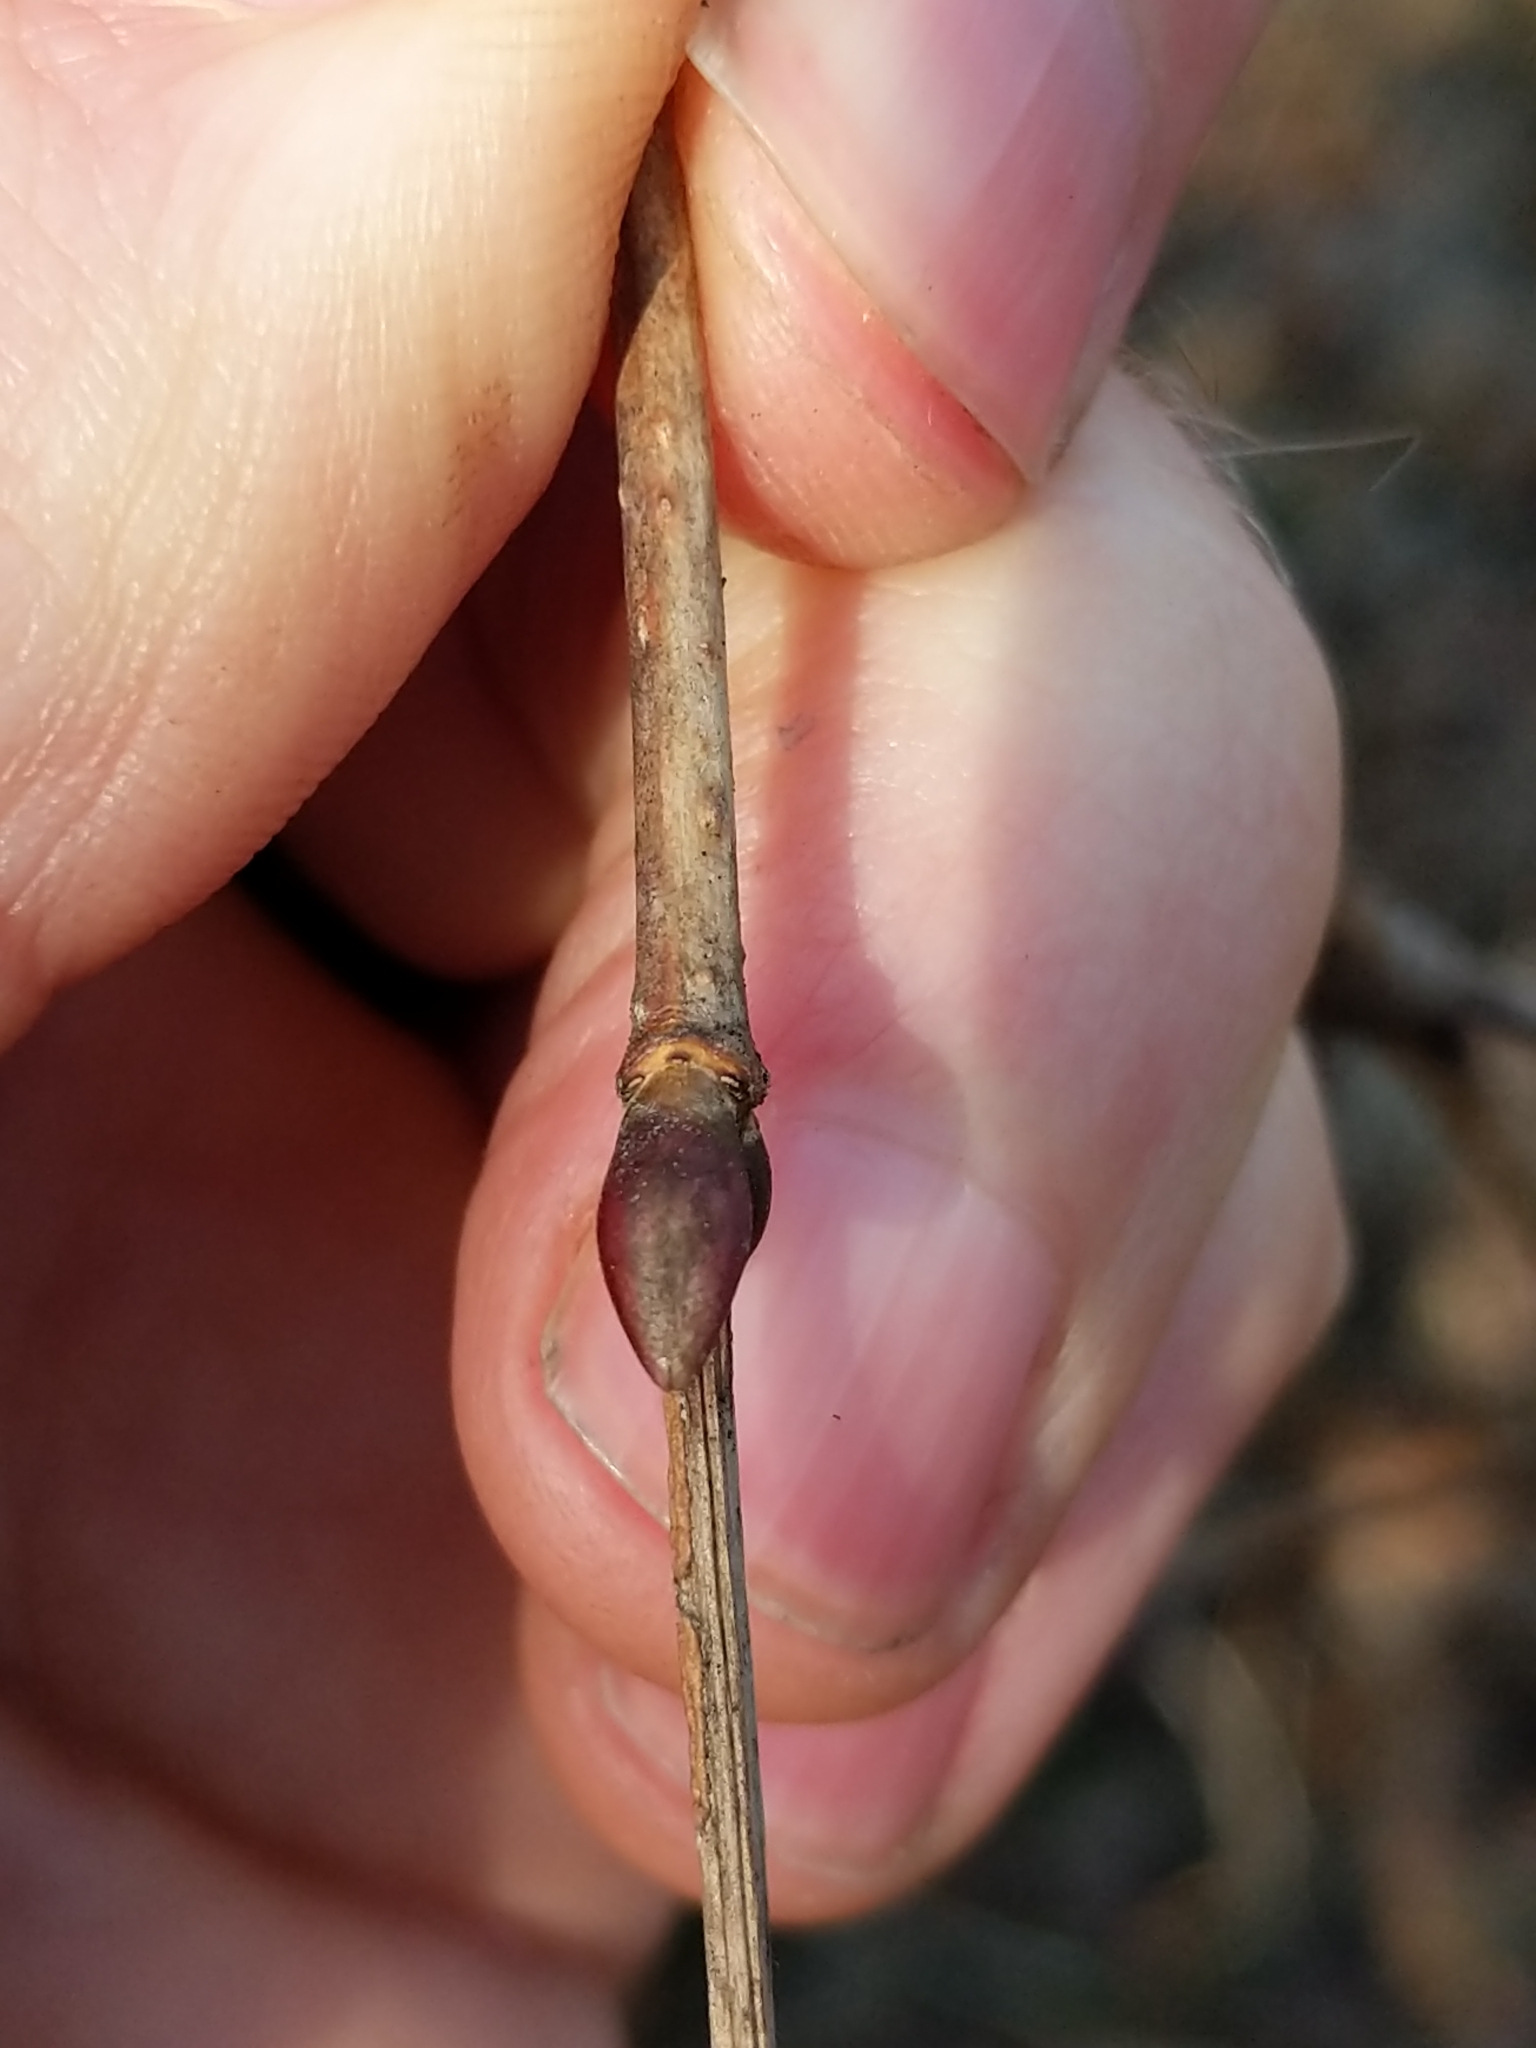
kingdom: Plantae
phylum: Tracheophyta
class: Magnoliopsida
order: Dipsacales
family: Viburnaceae
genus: Viburnum
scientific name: Viburnum opulus
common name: Guelder-rose
